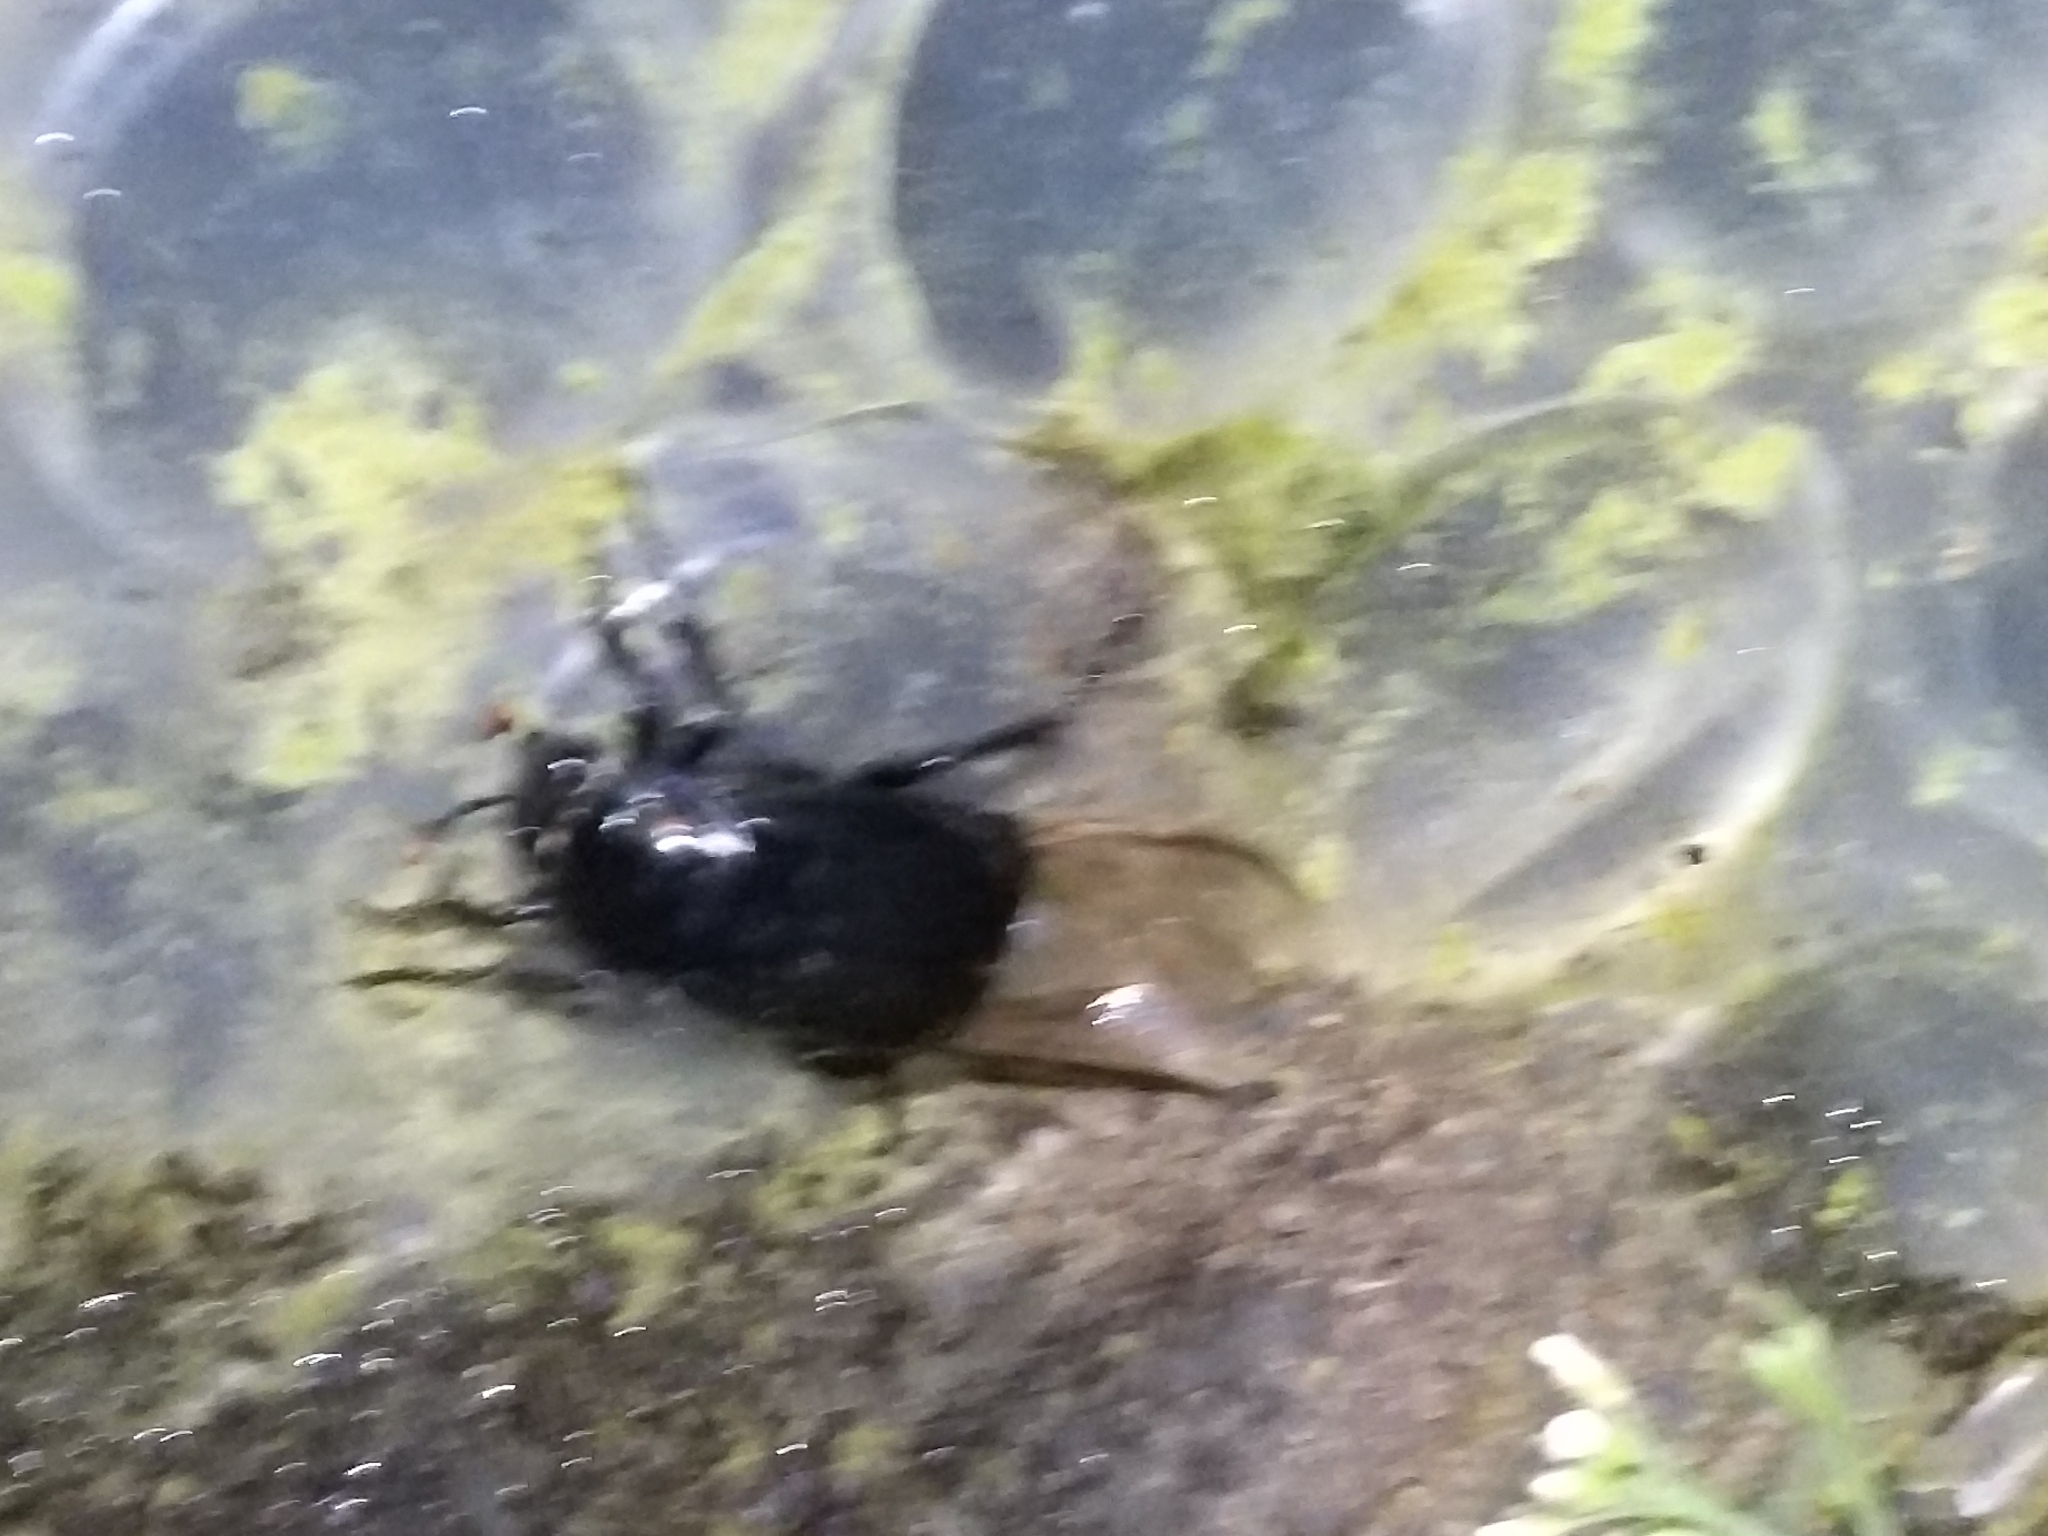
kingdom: Animalia
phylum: Arthropoda
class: Insecta
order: Coleoptera
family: Staphylinidae
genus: Nicrophorus
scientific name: Nicrophorus humator
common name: Black sexton beetle
